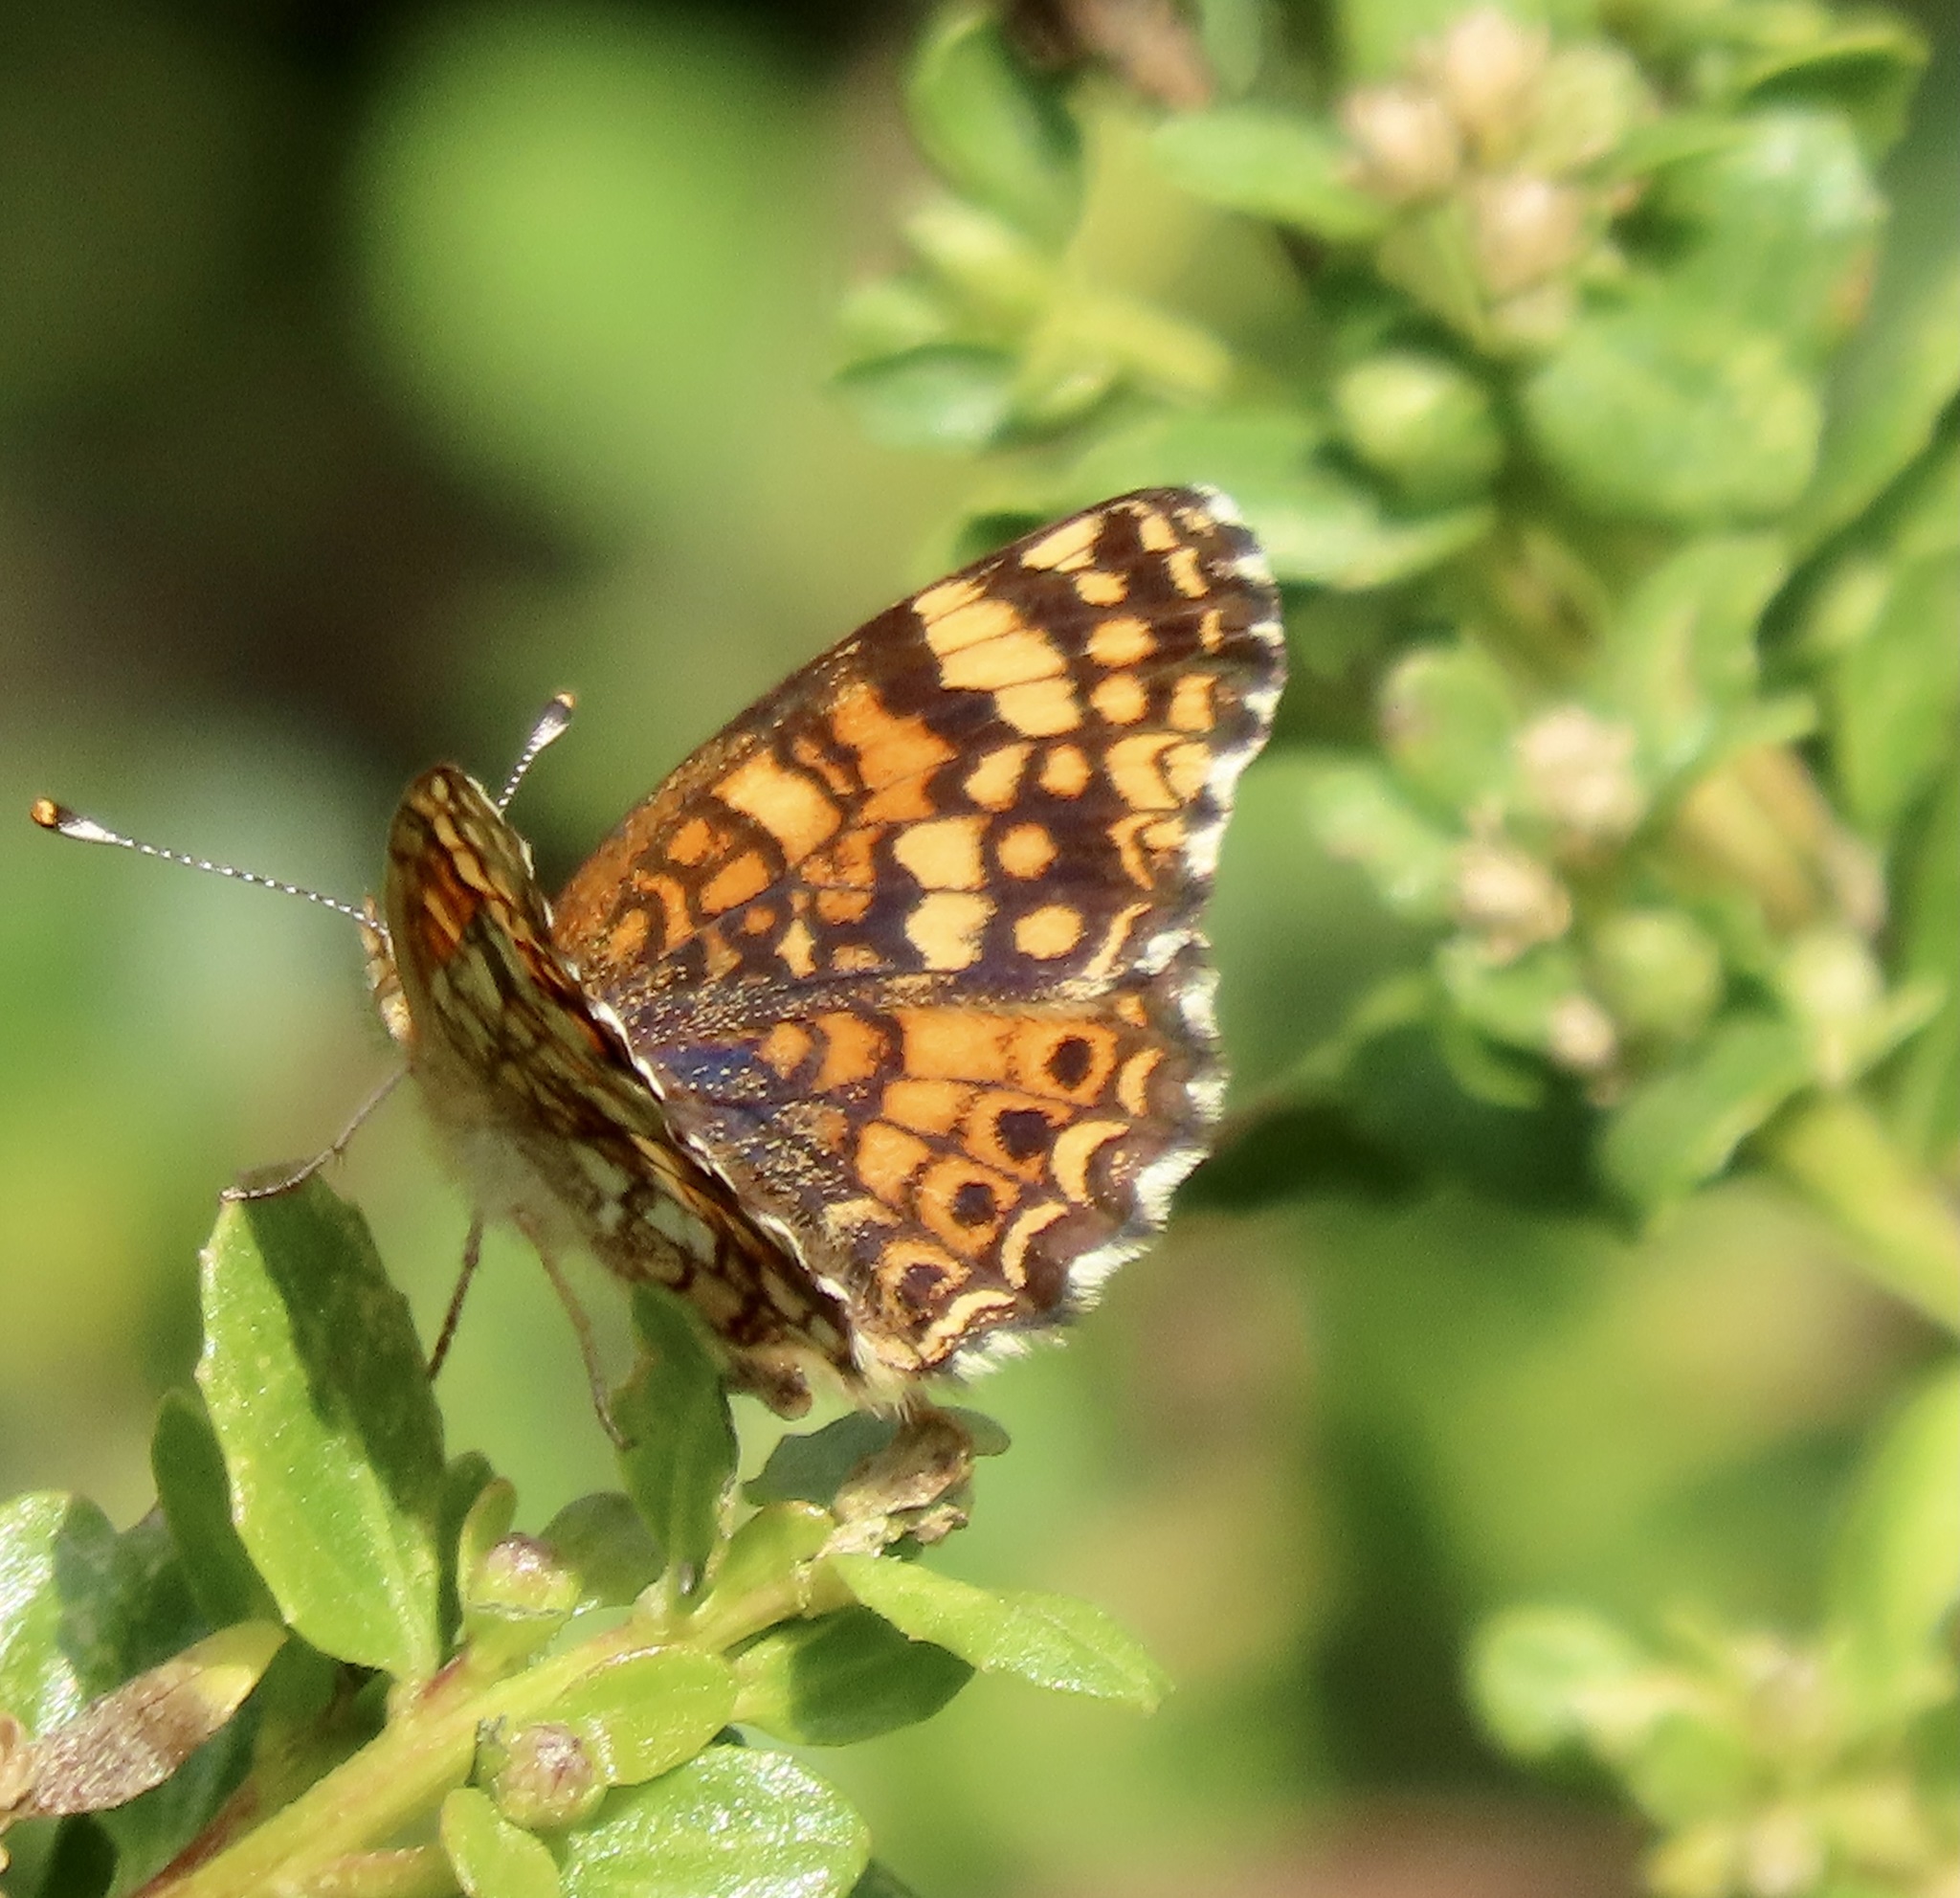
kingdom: Animalia
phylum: Arthropoda
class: Insecta
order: Lepidoptera
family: Nymphalidae
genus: Eresia
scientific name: Eresia aveyrona
